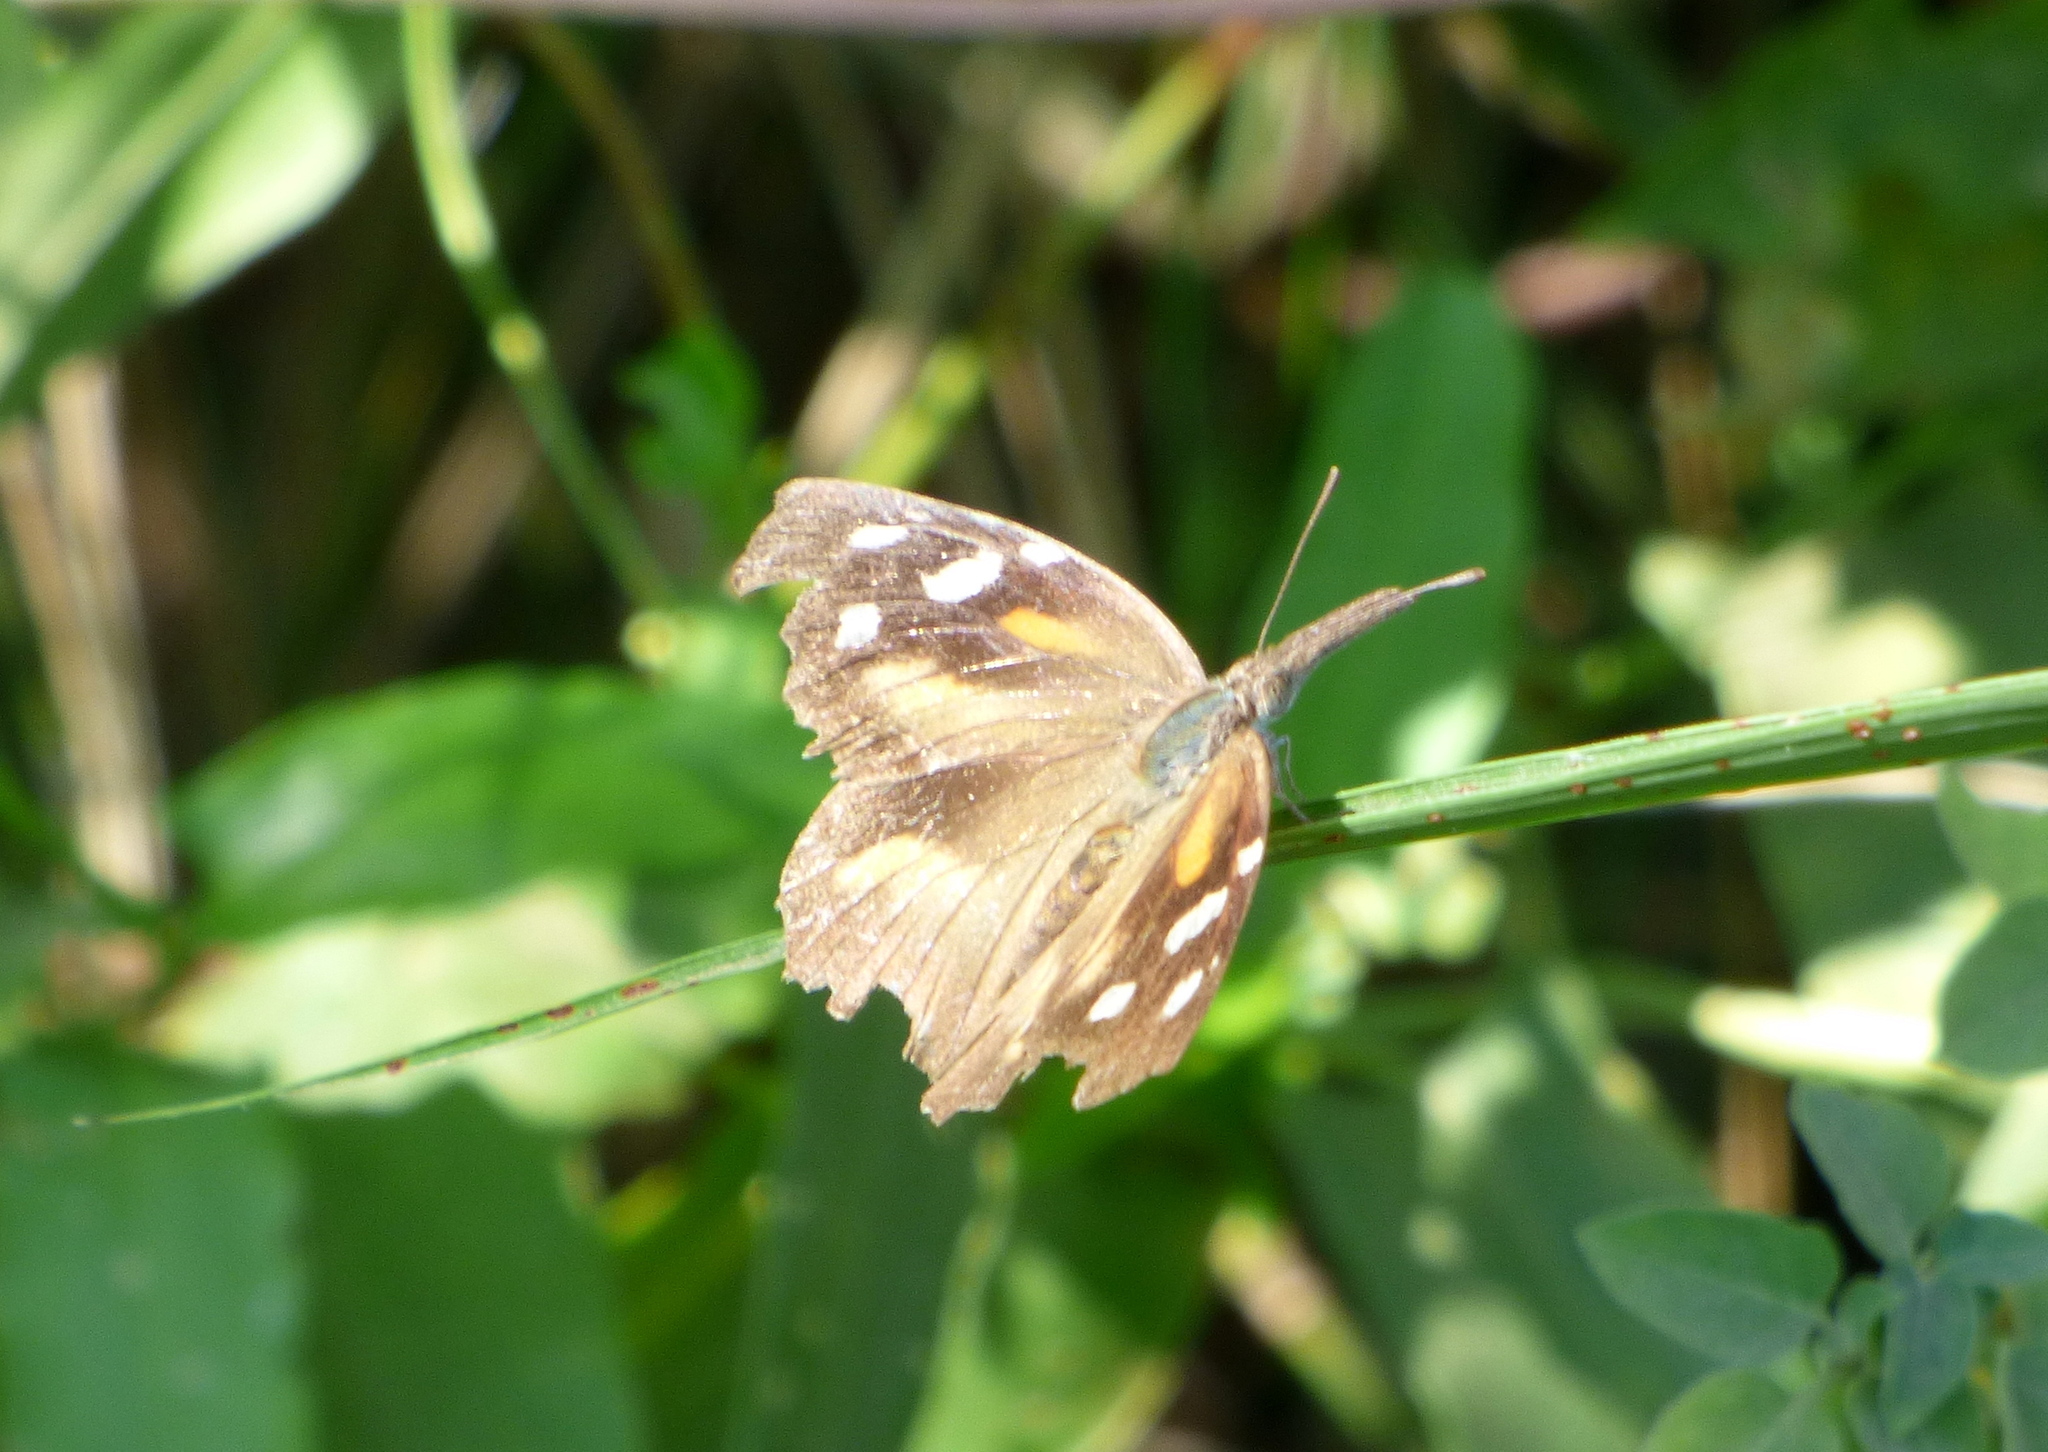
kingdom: Animalia
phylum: Arthropoda
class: Insecta
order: Lepidoptera
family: Nymphalidae
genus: Libytheana
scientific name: Libytheana carinenta
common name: American snout
